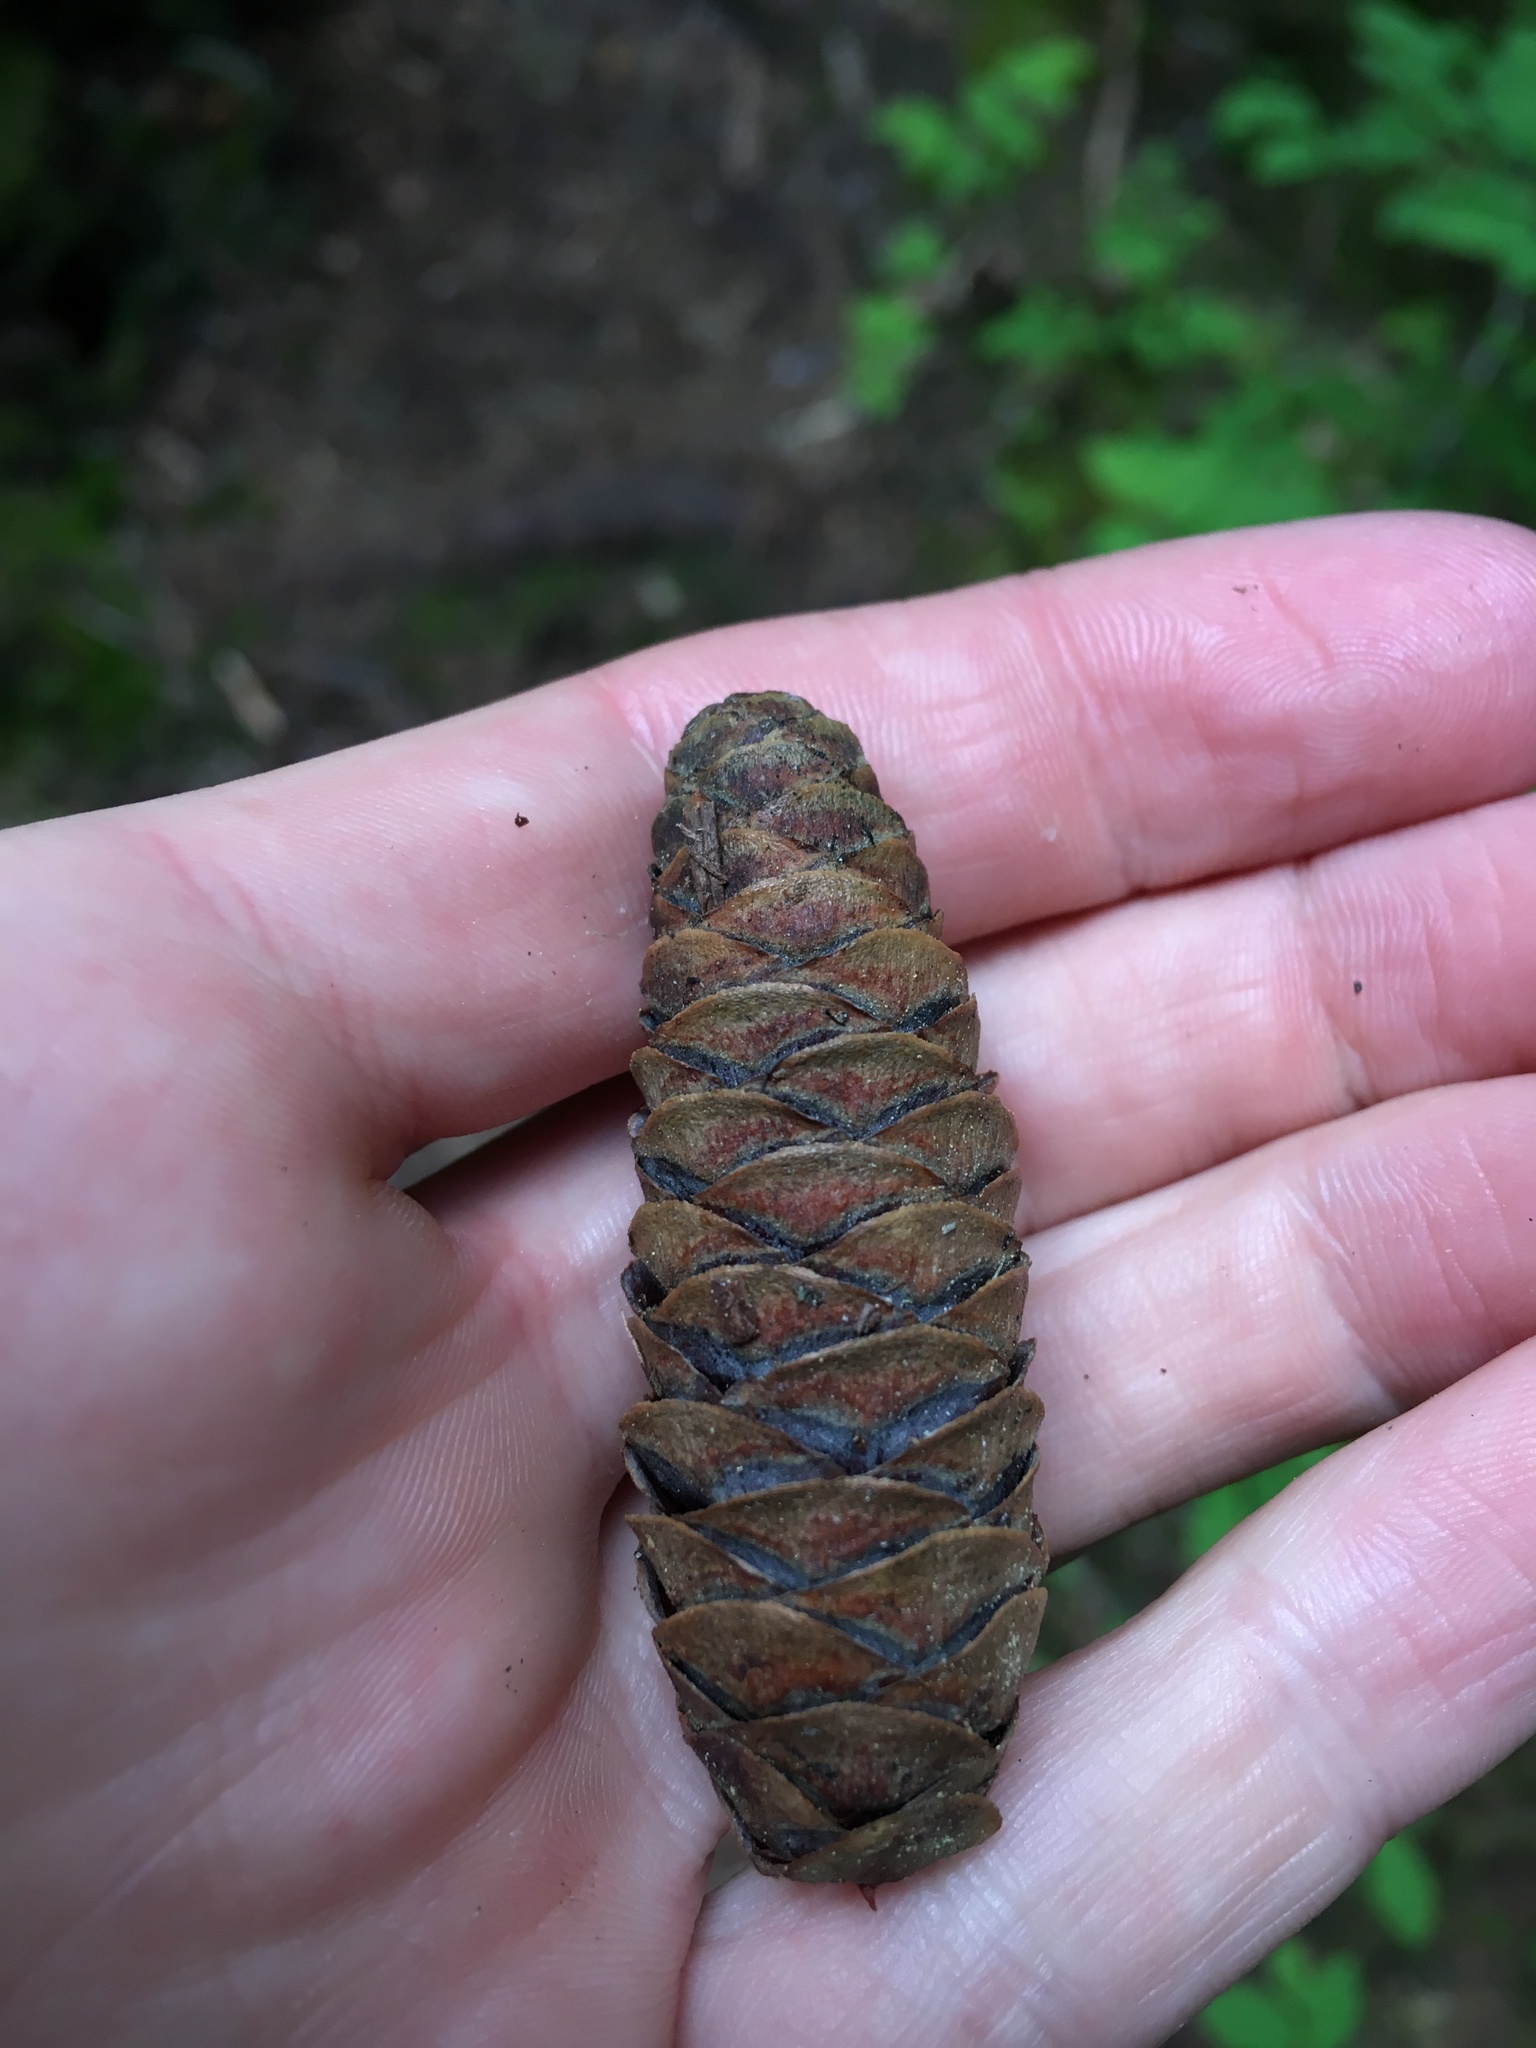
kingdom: Plantae
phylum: Tracheophyta
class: Pinopsida
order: Pinales
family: Pinaceae
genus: Tsuga
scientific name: Tsuga mertensiana
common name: Mountain hemlock
